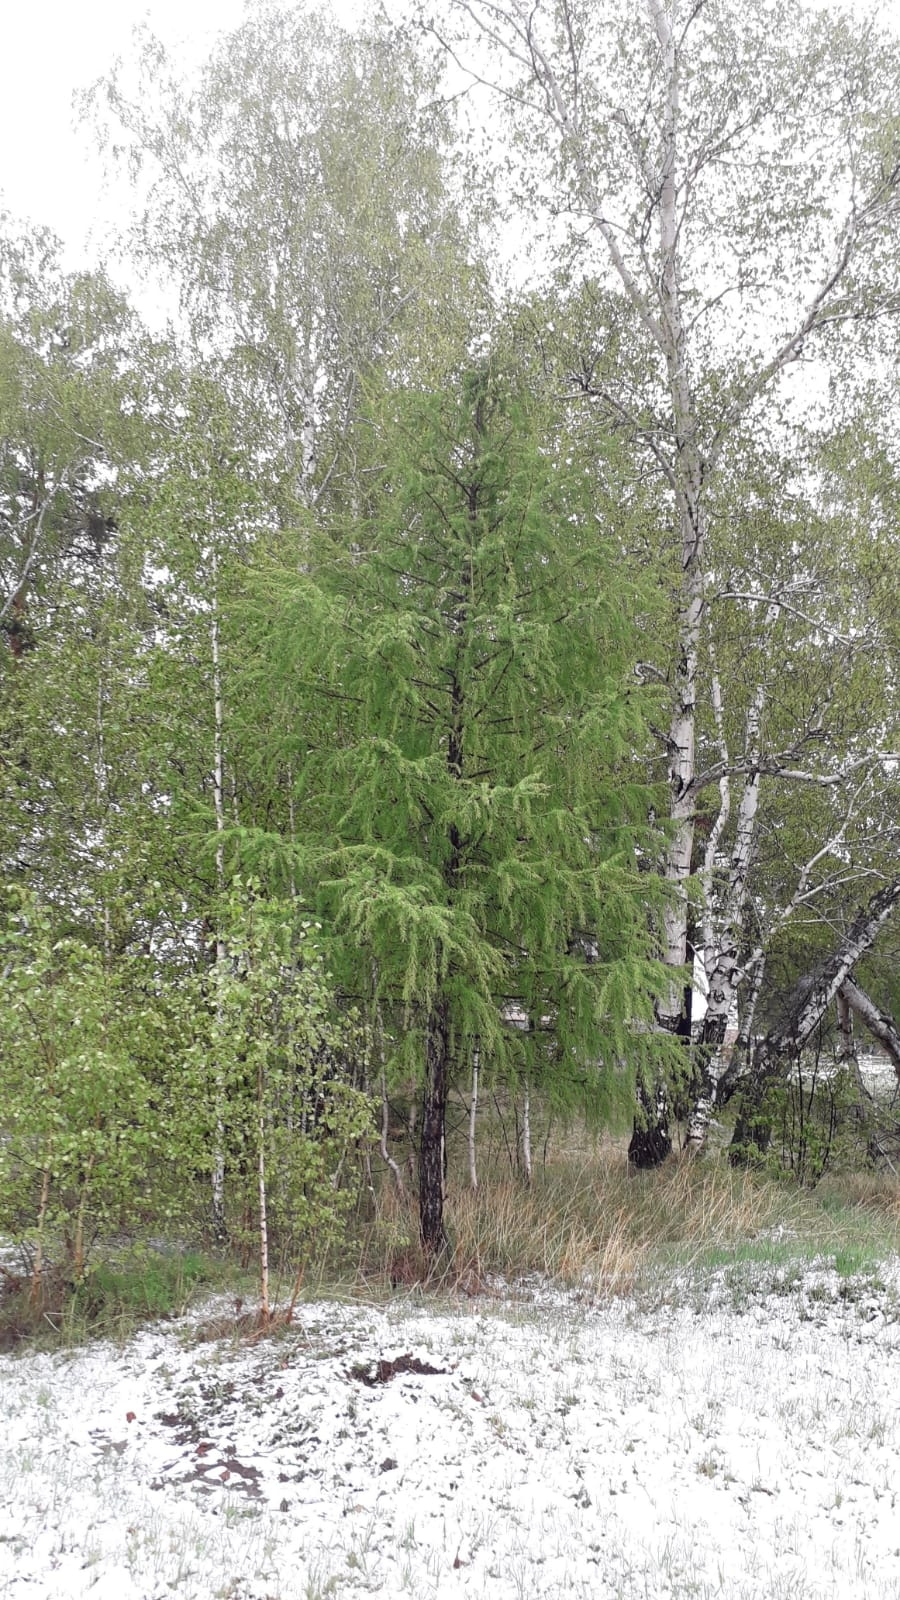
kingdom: Plantae
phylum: Tracheophyta
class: Pinopsida
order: Pinales
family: Pinaceae
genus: Larix
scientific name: Larix sibirica
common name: Siberian larch
